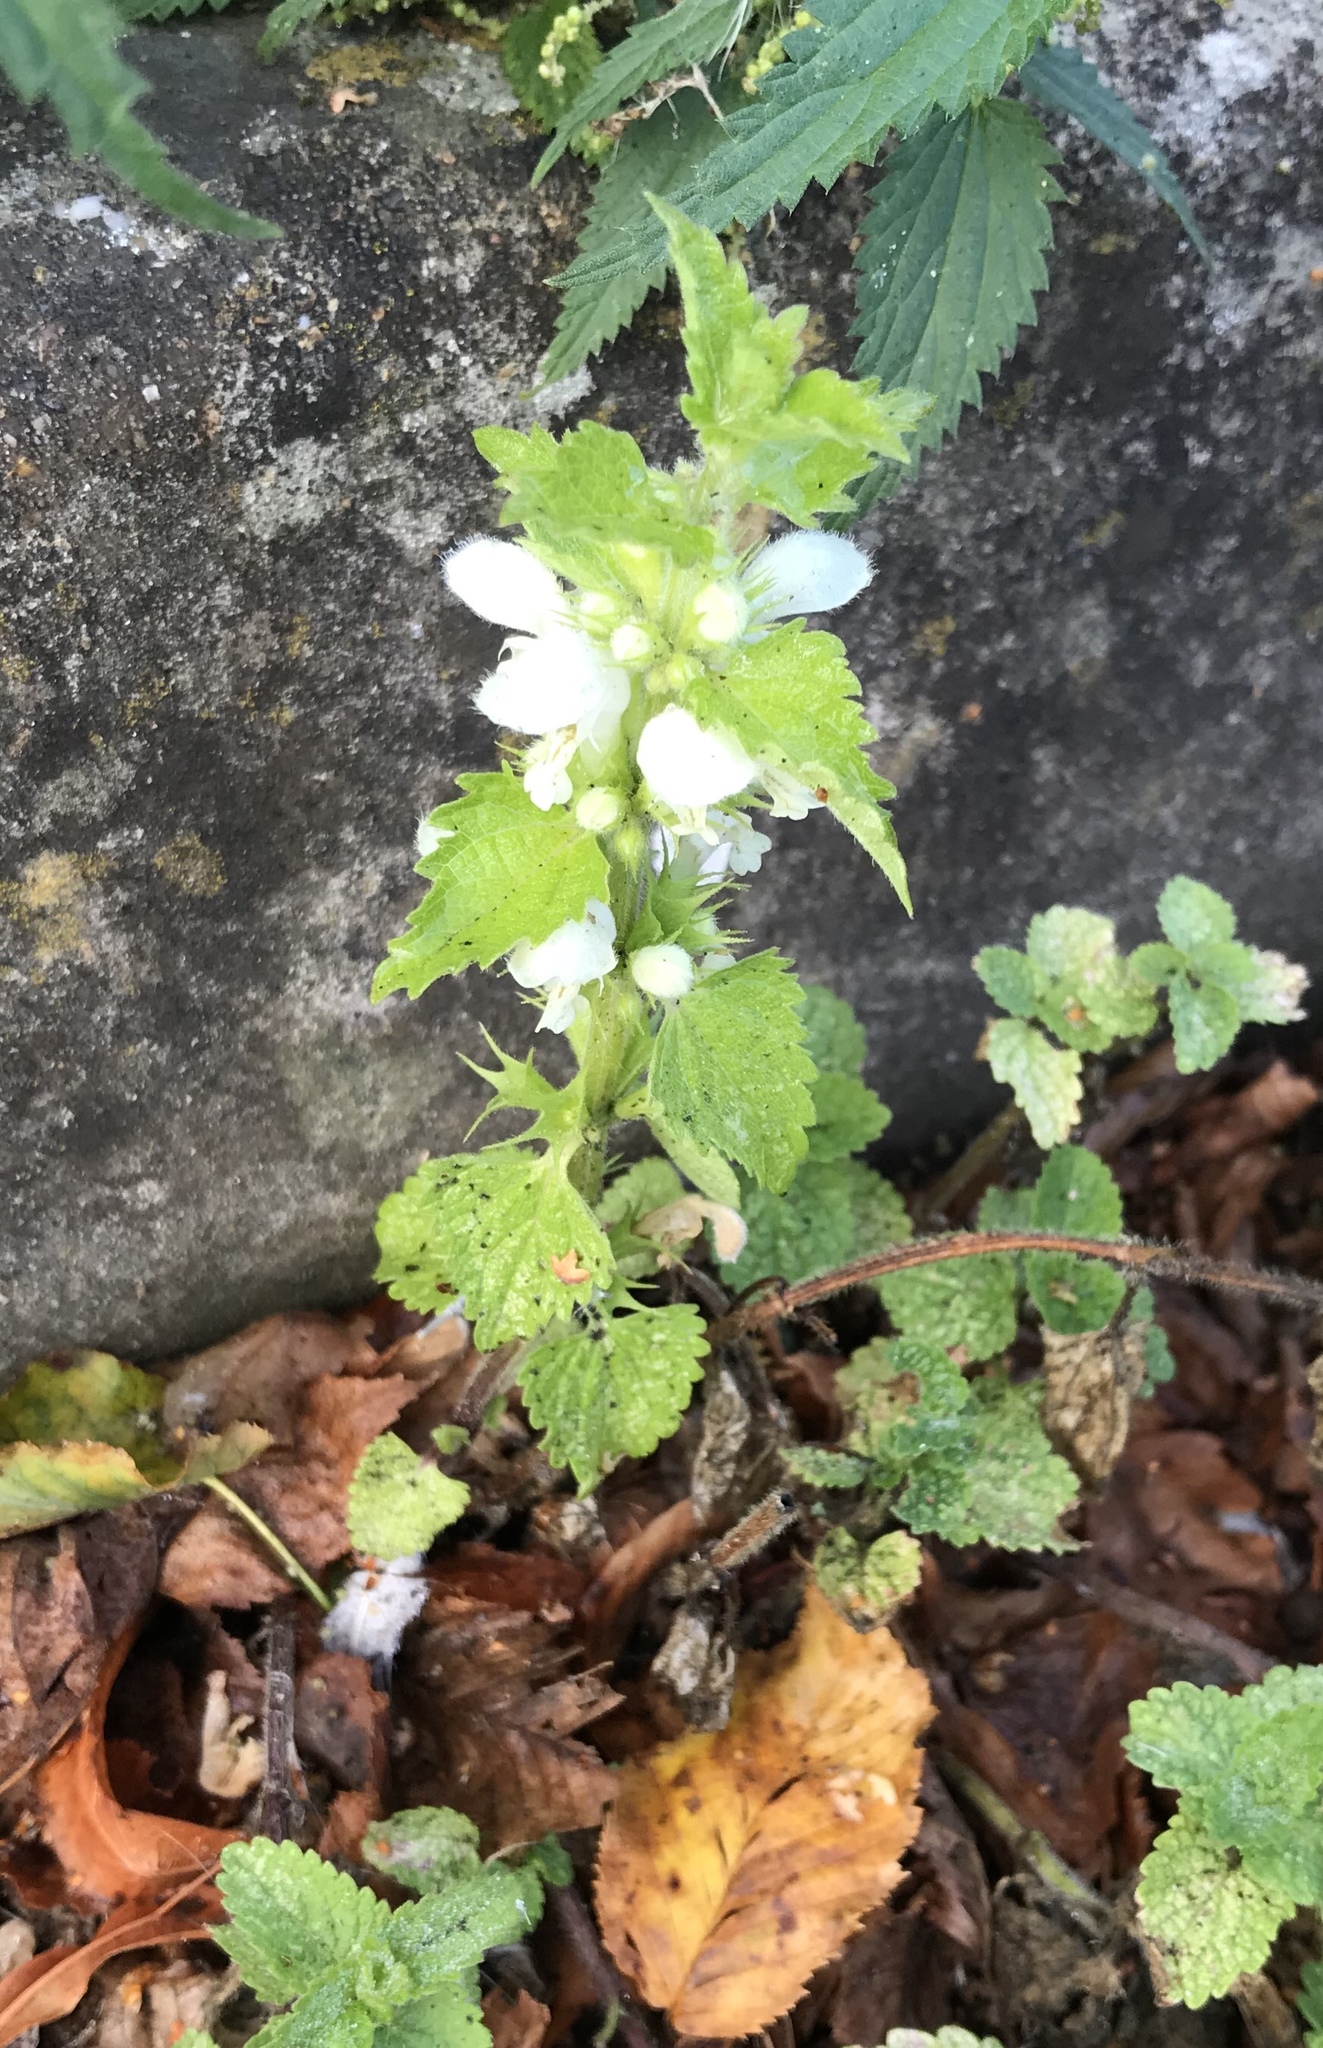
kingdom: Plantae
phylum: Tracheophyta
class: Magnoliopsida
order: Lamiales
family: Lamiaceae
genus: Lamium
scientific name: Lamium album
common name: White dead-nettle
